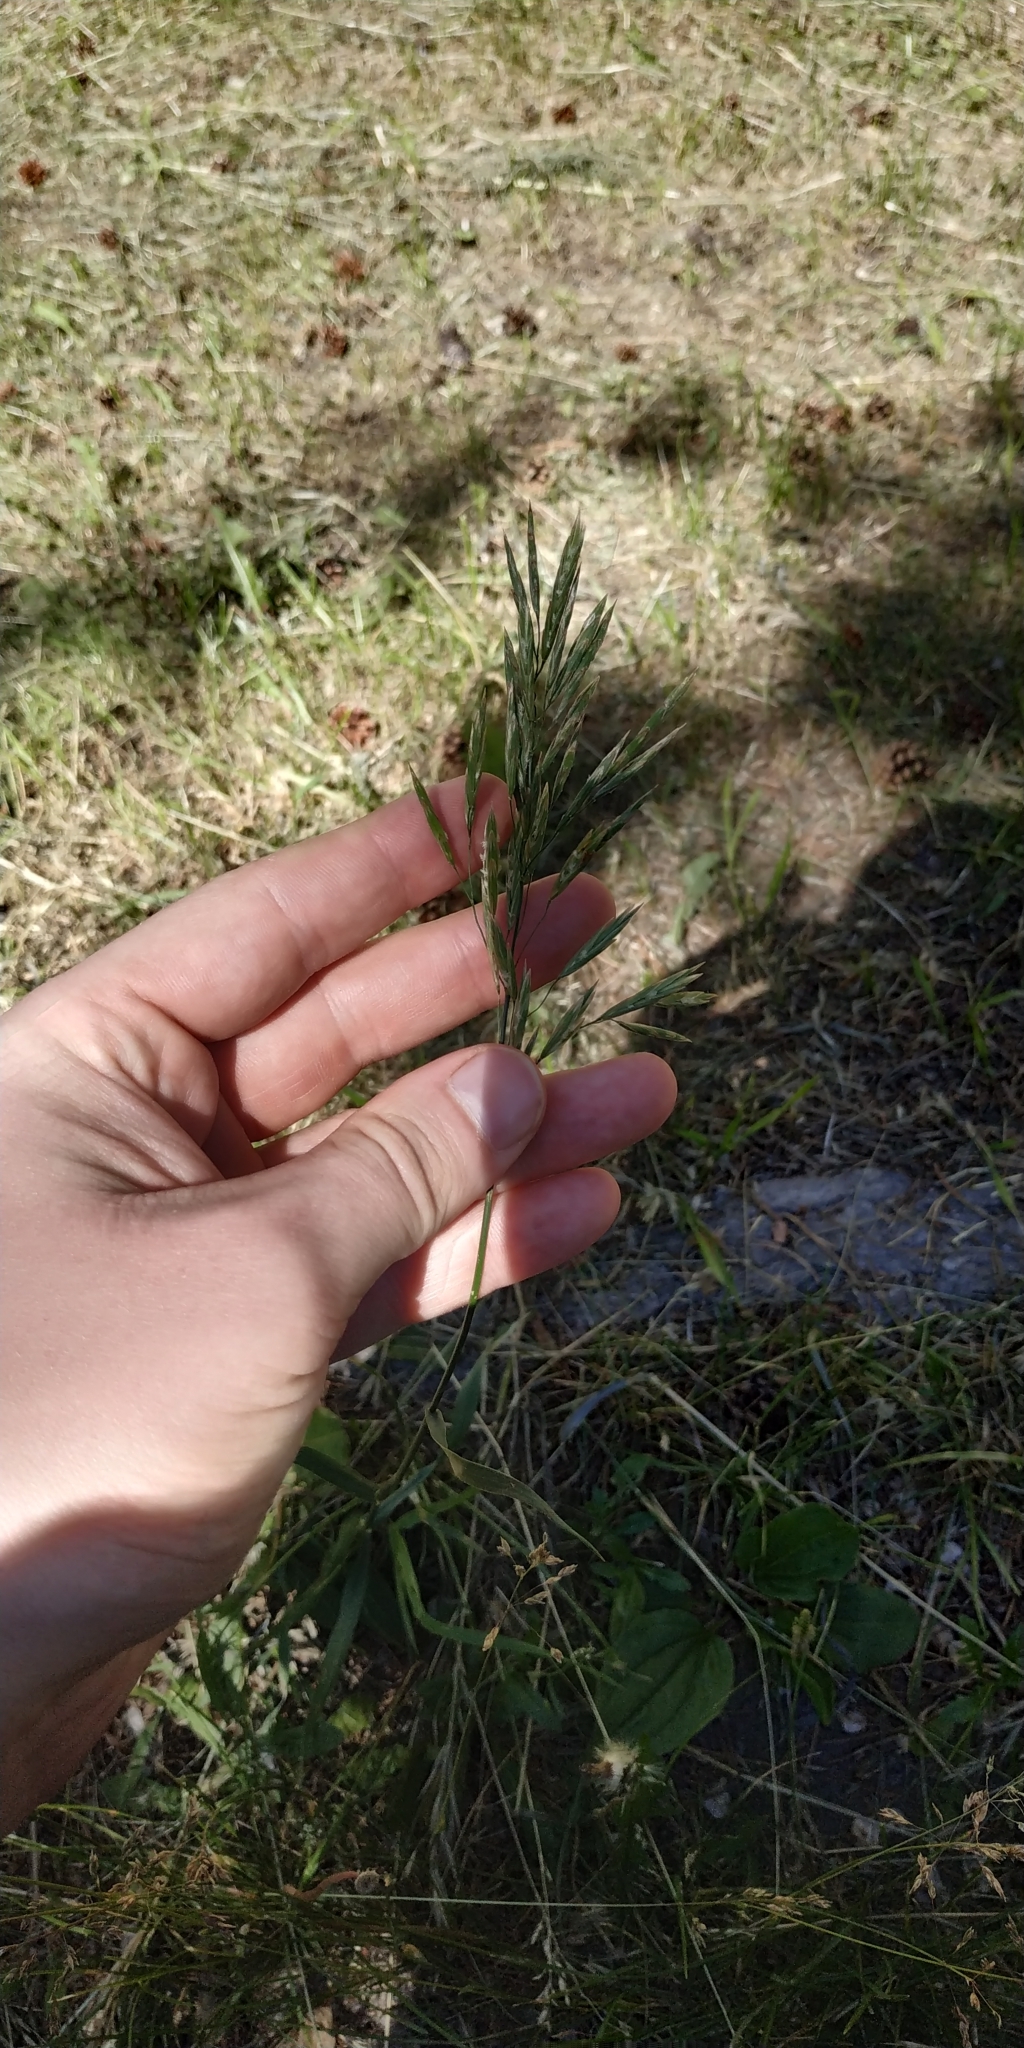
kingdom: Plantae
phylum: Tracheophyta
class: Liliopsida
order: Poales
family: Poaceae
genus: Bromus
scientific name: Bromus inermis
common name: Smooth brome
